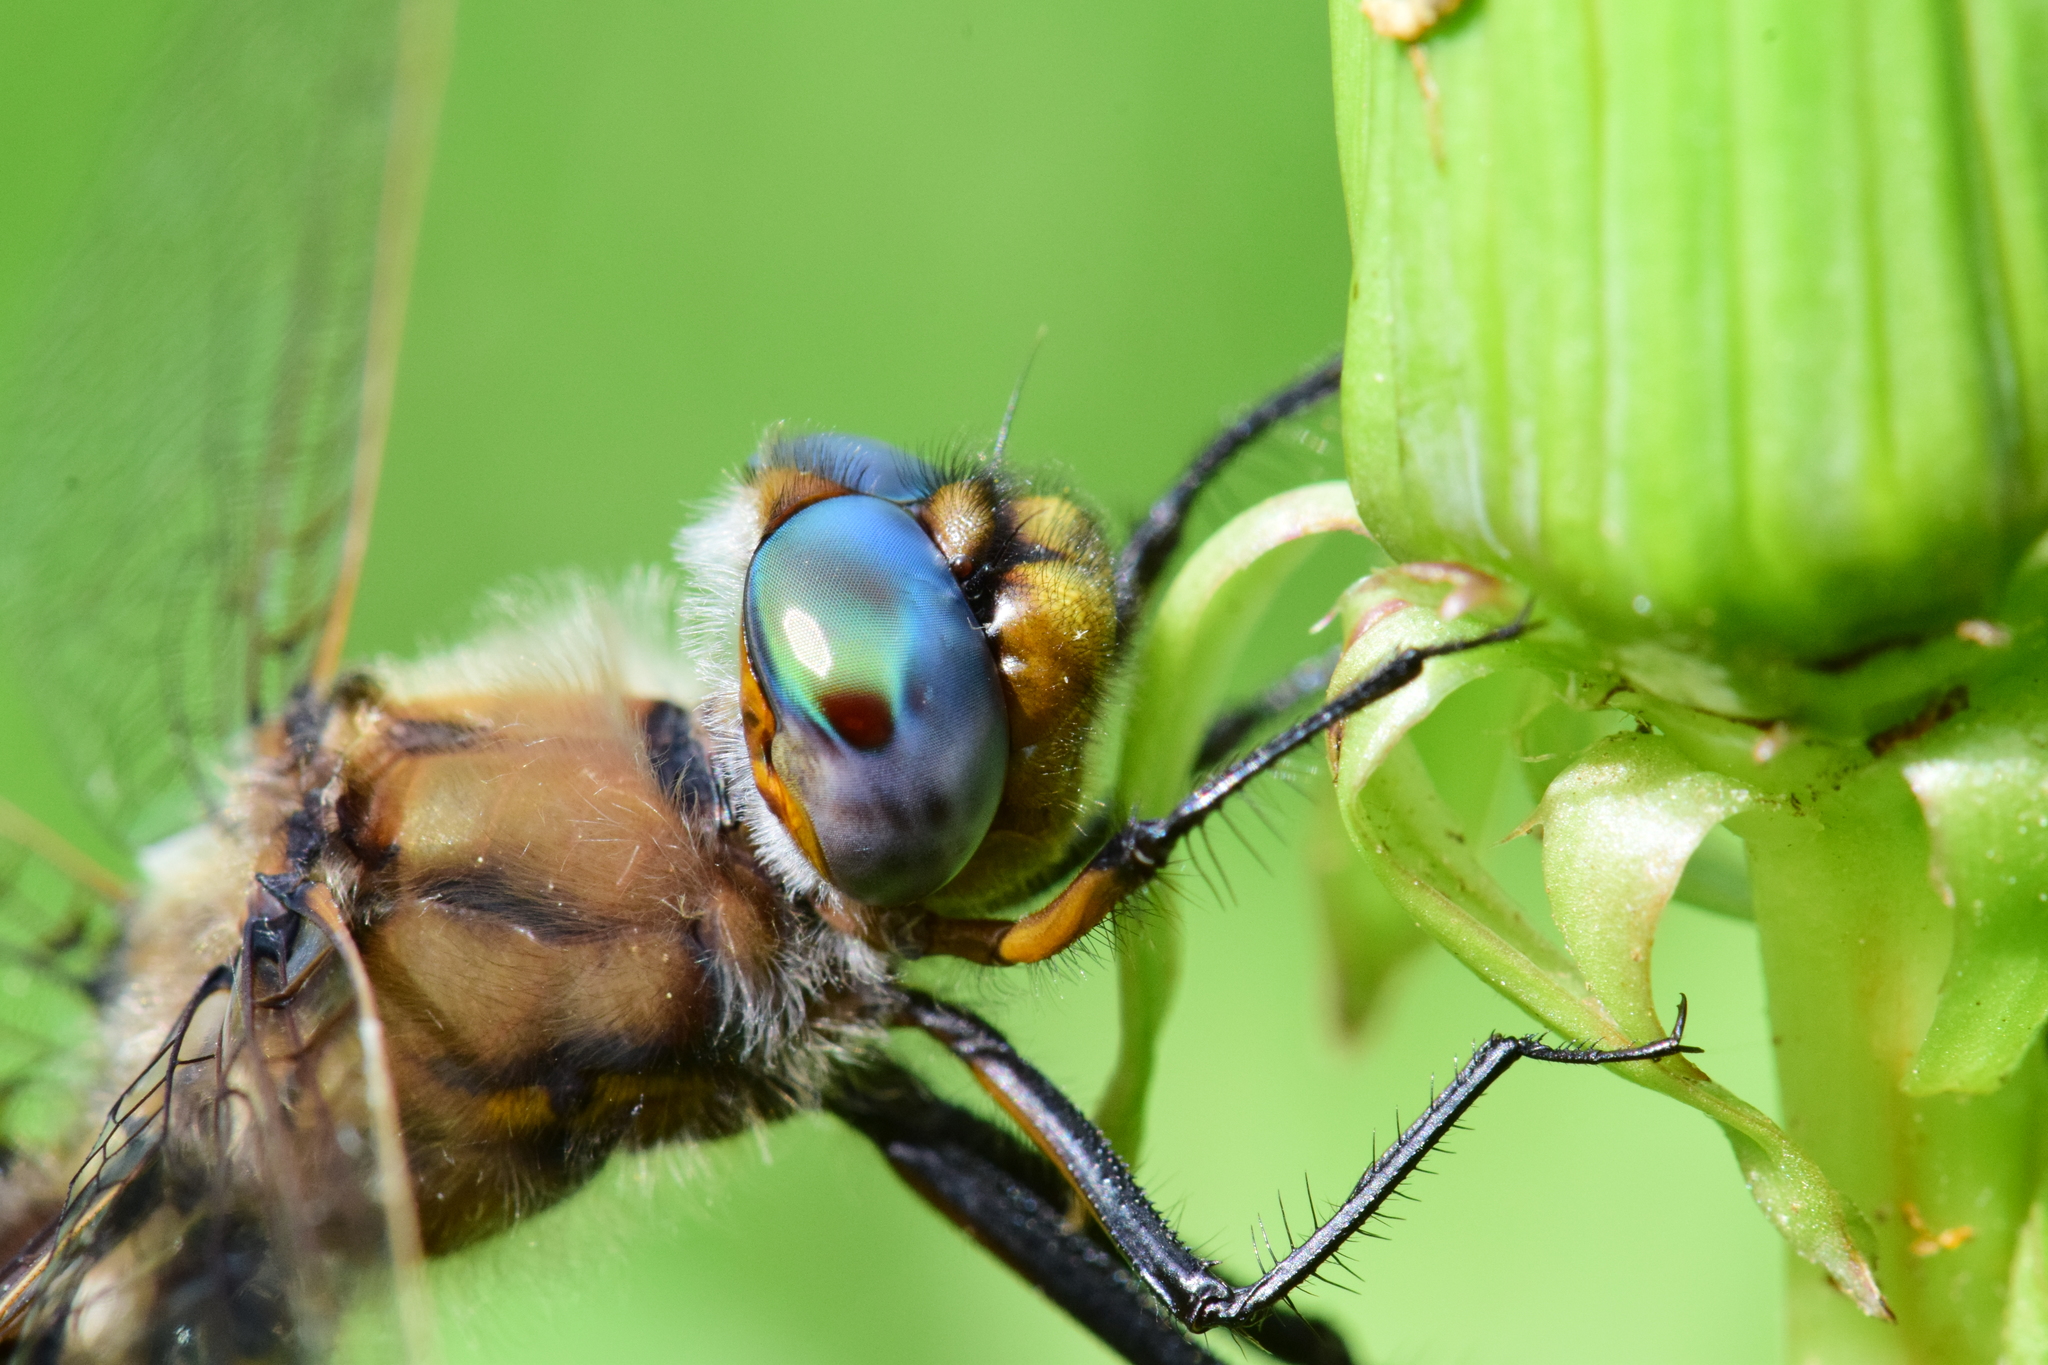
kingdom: Animalia
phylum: Arthropoda
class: Insecta
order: Odonata
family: Corduliidae
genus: Epitheca
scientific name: Epitheca canis
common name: Beaverpond baskettail
